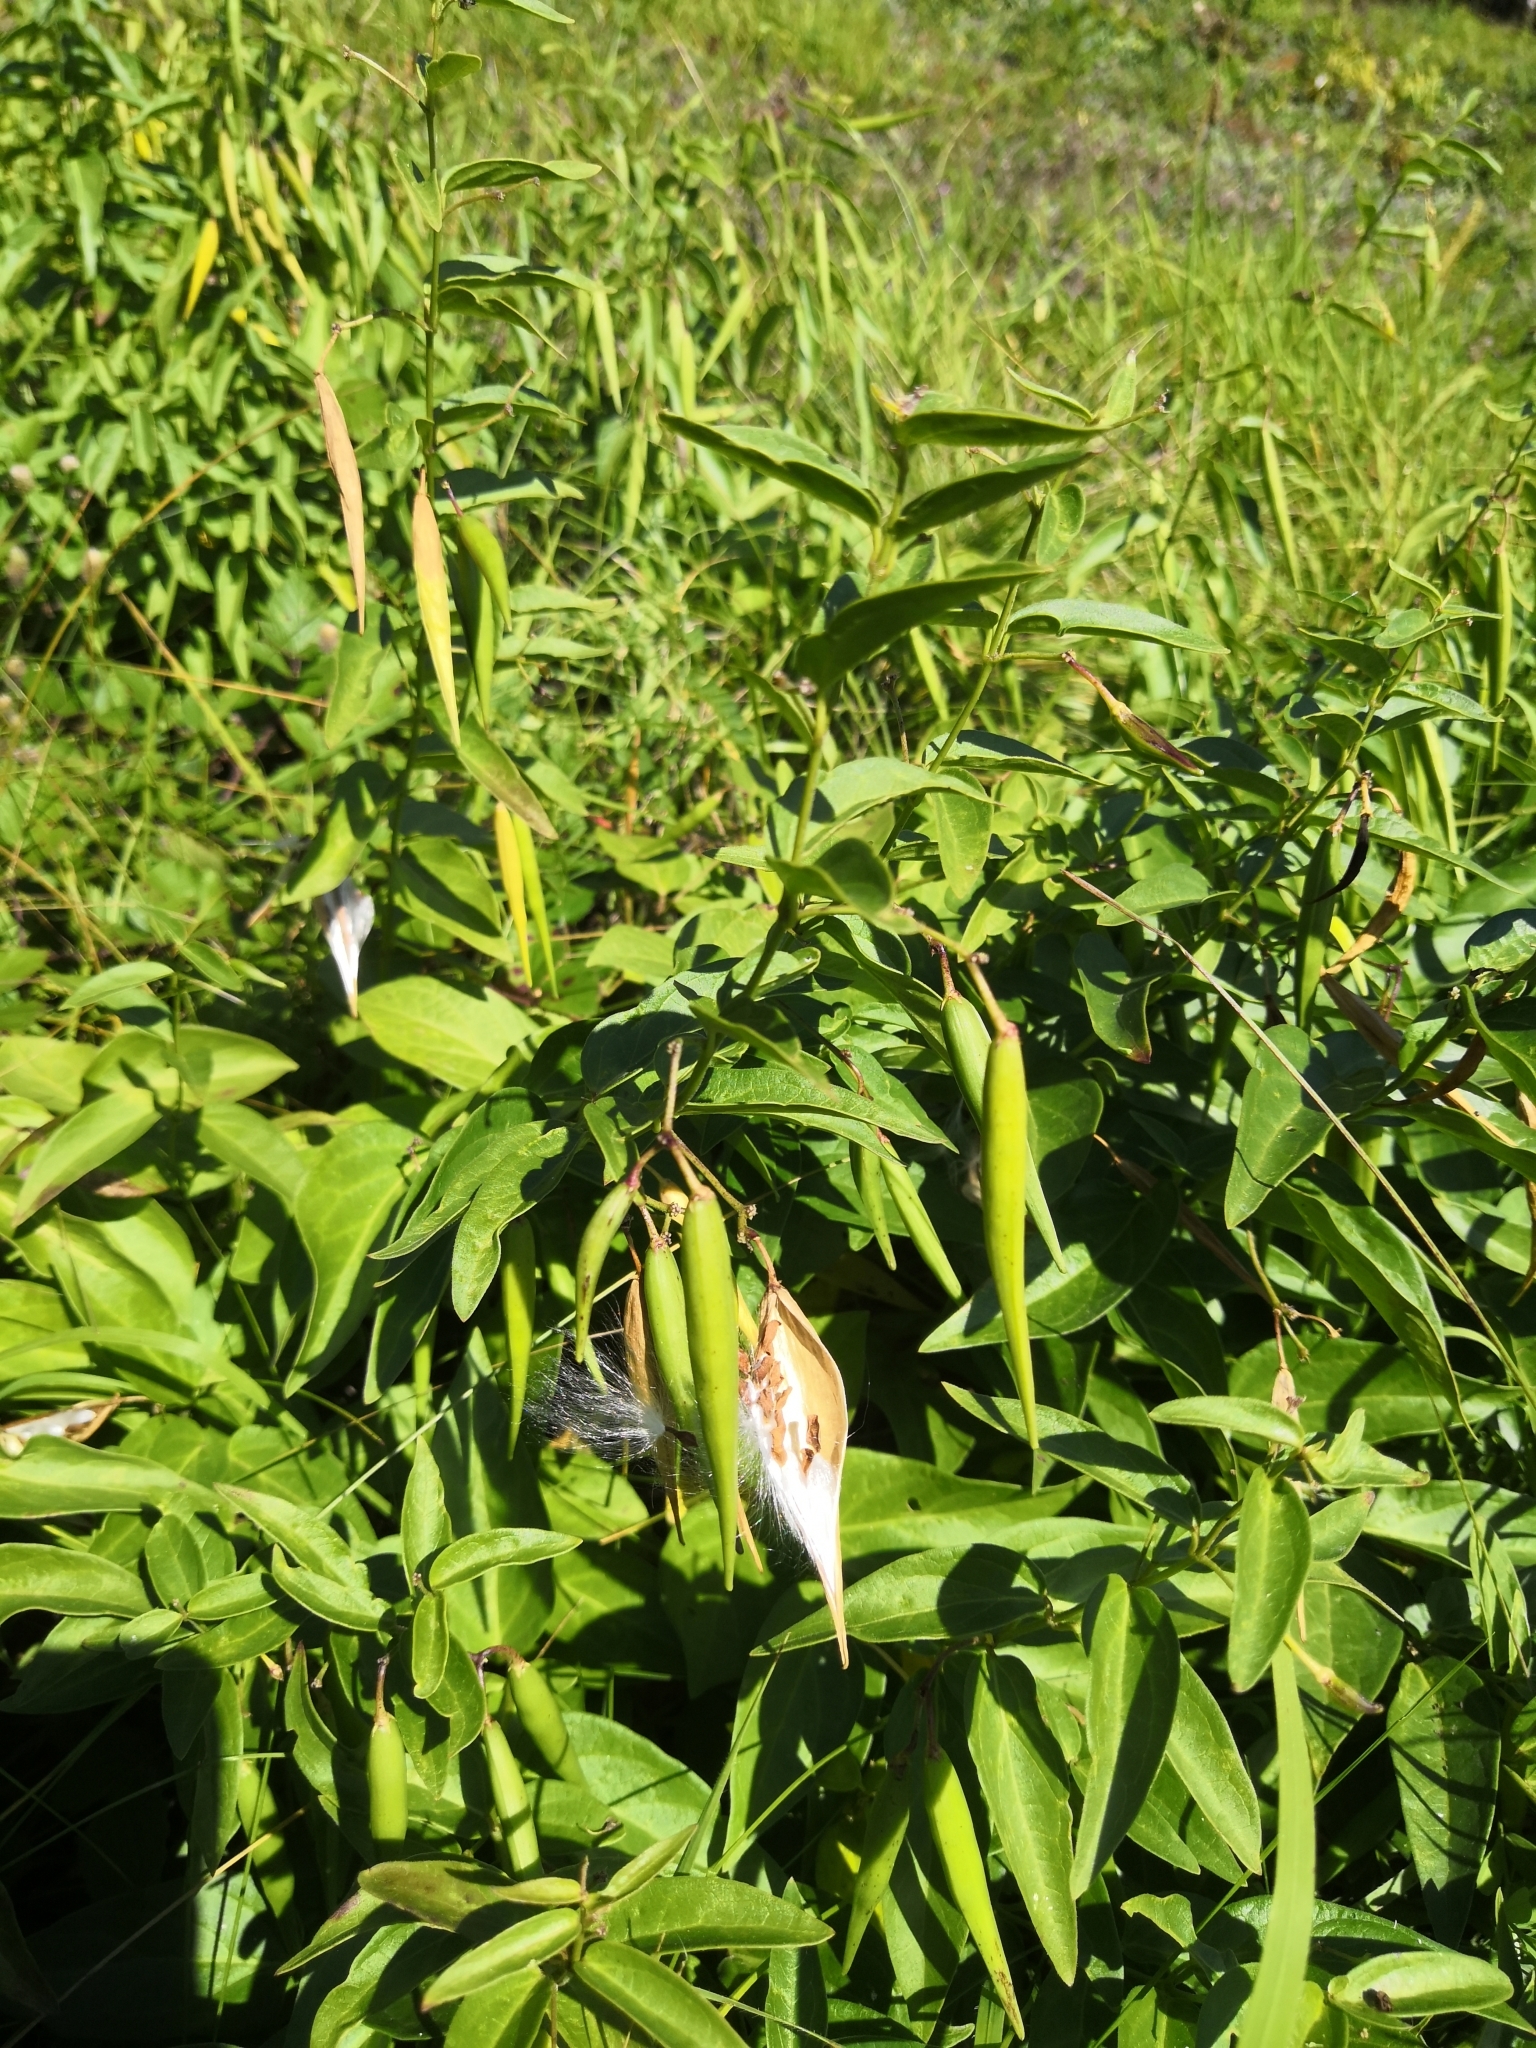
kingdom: Plantae
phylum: Tracheophyta
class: Magnoliopsida
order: Gentianales
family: Apocynaceae
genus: Vincetoxicum
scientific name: Vincetoxicum hirundinaria
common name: White swallowwort
